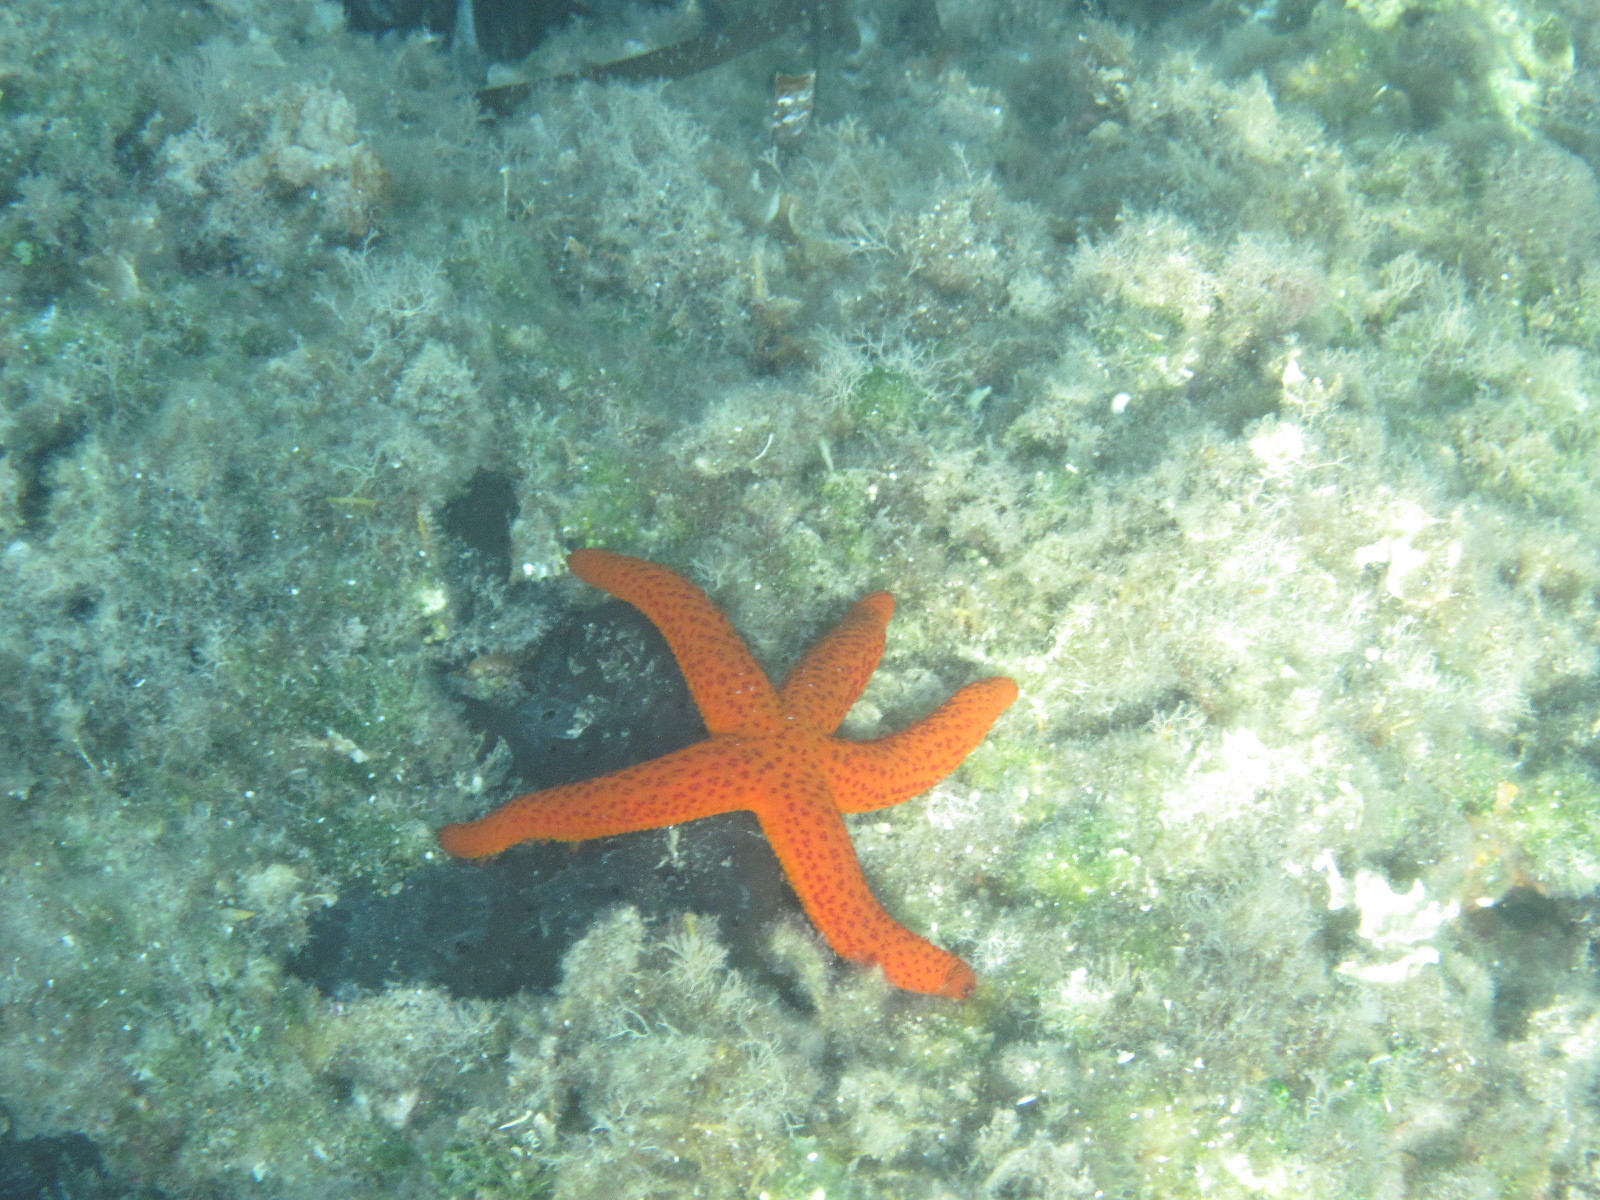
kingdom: Animalia
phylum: Echinodermata
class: Asteroidea
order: Spinulosida
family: Echinasteridae
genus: Echinaster
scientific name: Echinaster sepositus
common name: Red starfish
